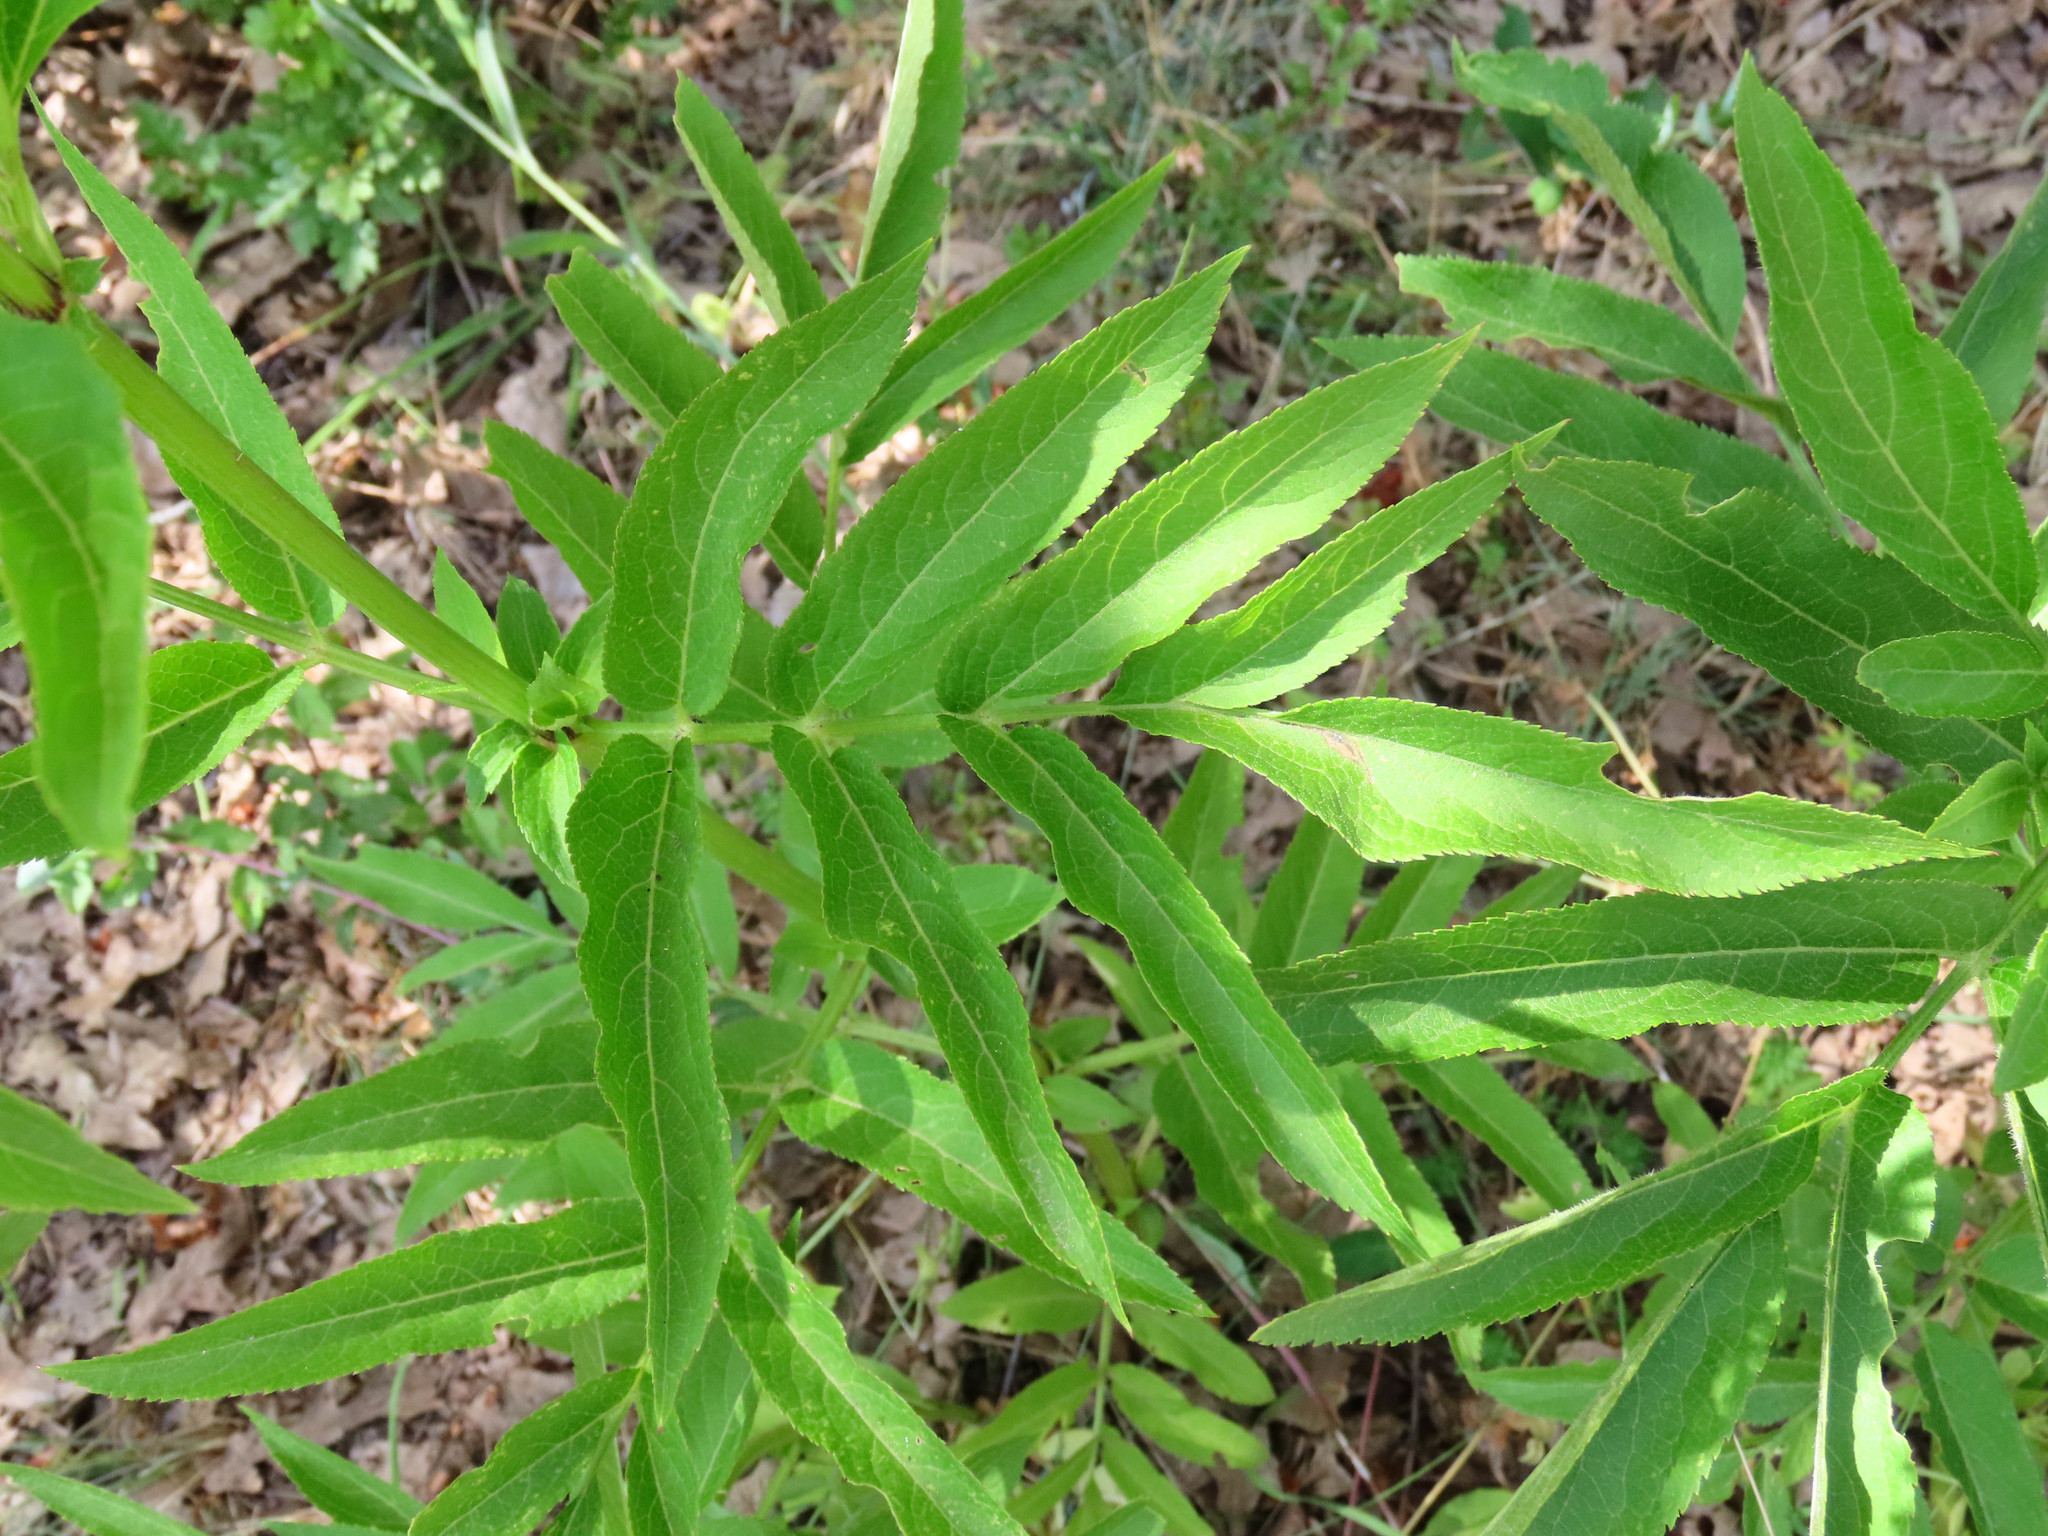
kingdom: Plantae
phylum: Tracheophyta
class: Magnoliopsida
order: Dipsacales
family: Viburnaceae
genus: Sambucus
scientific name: Sambucus ebulus
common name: Dwarf elder
